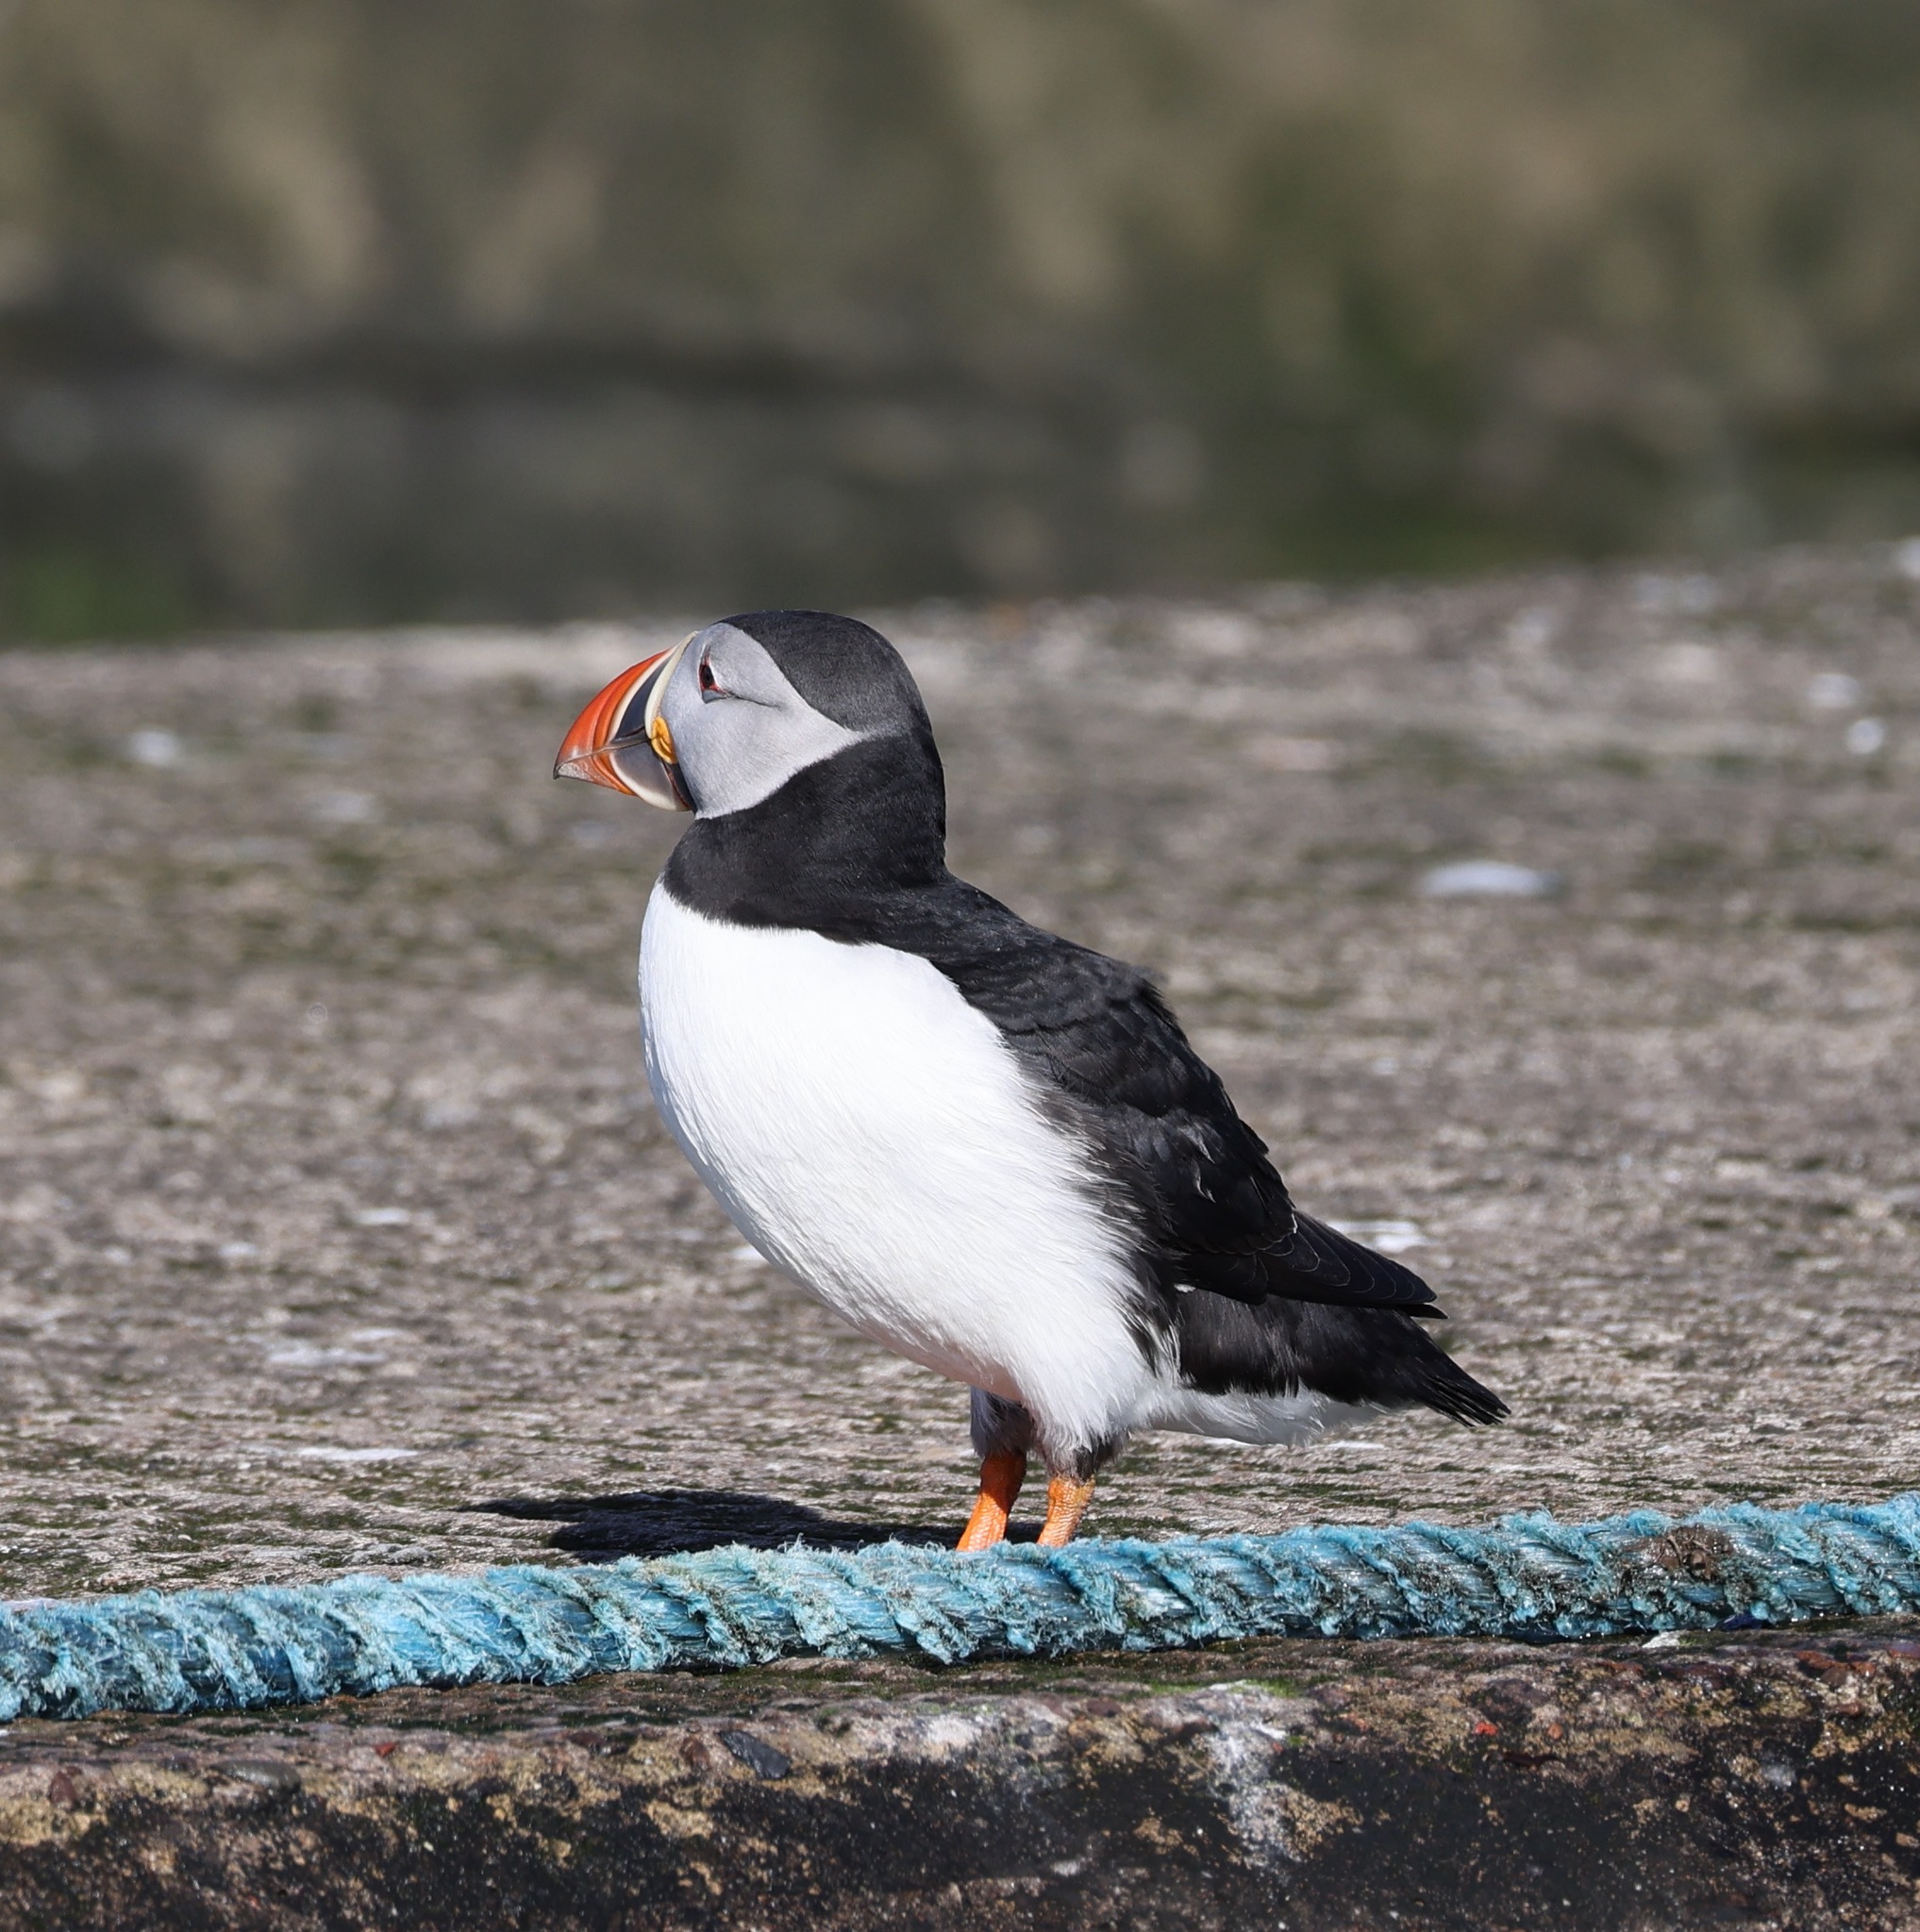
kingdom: Animalia
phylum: Chordata
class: Aves
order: Charadriiformes
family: Alcidae
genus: Fratercula
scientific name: Fratercula arctica
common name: Atlantic puffin
